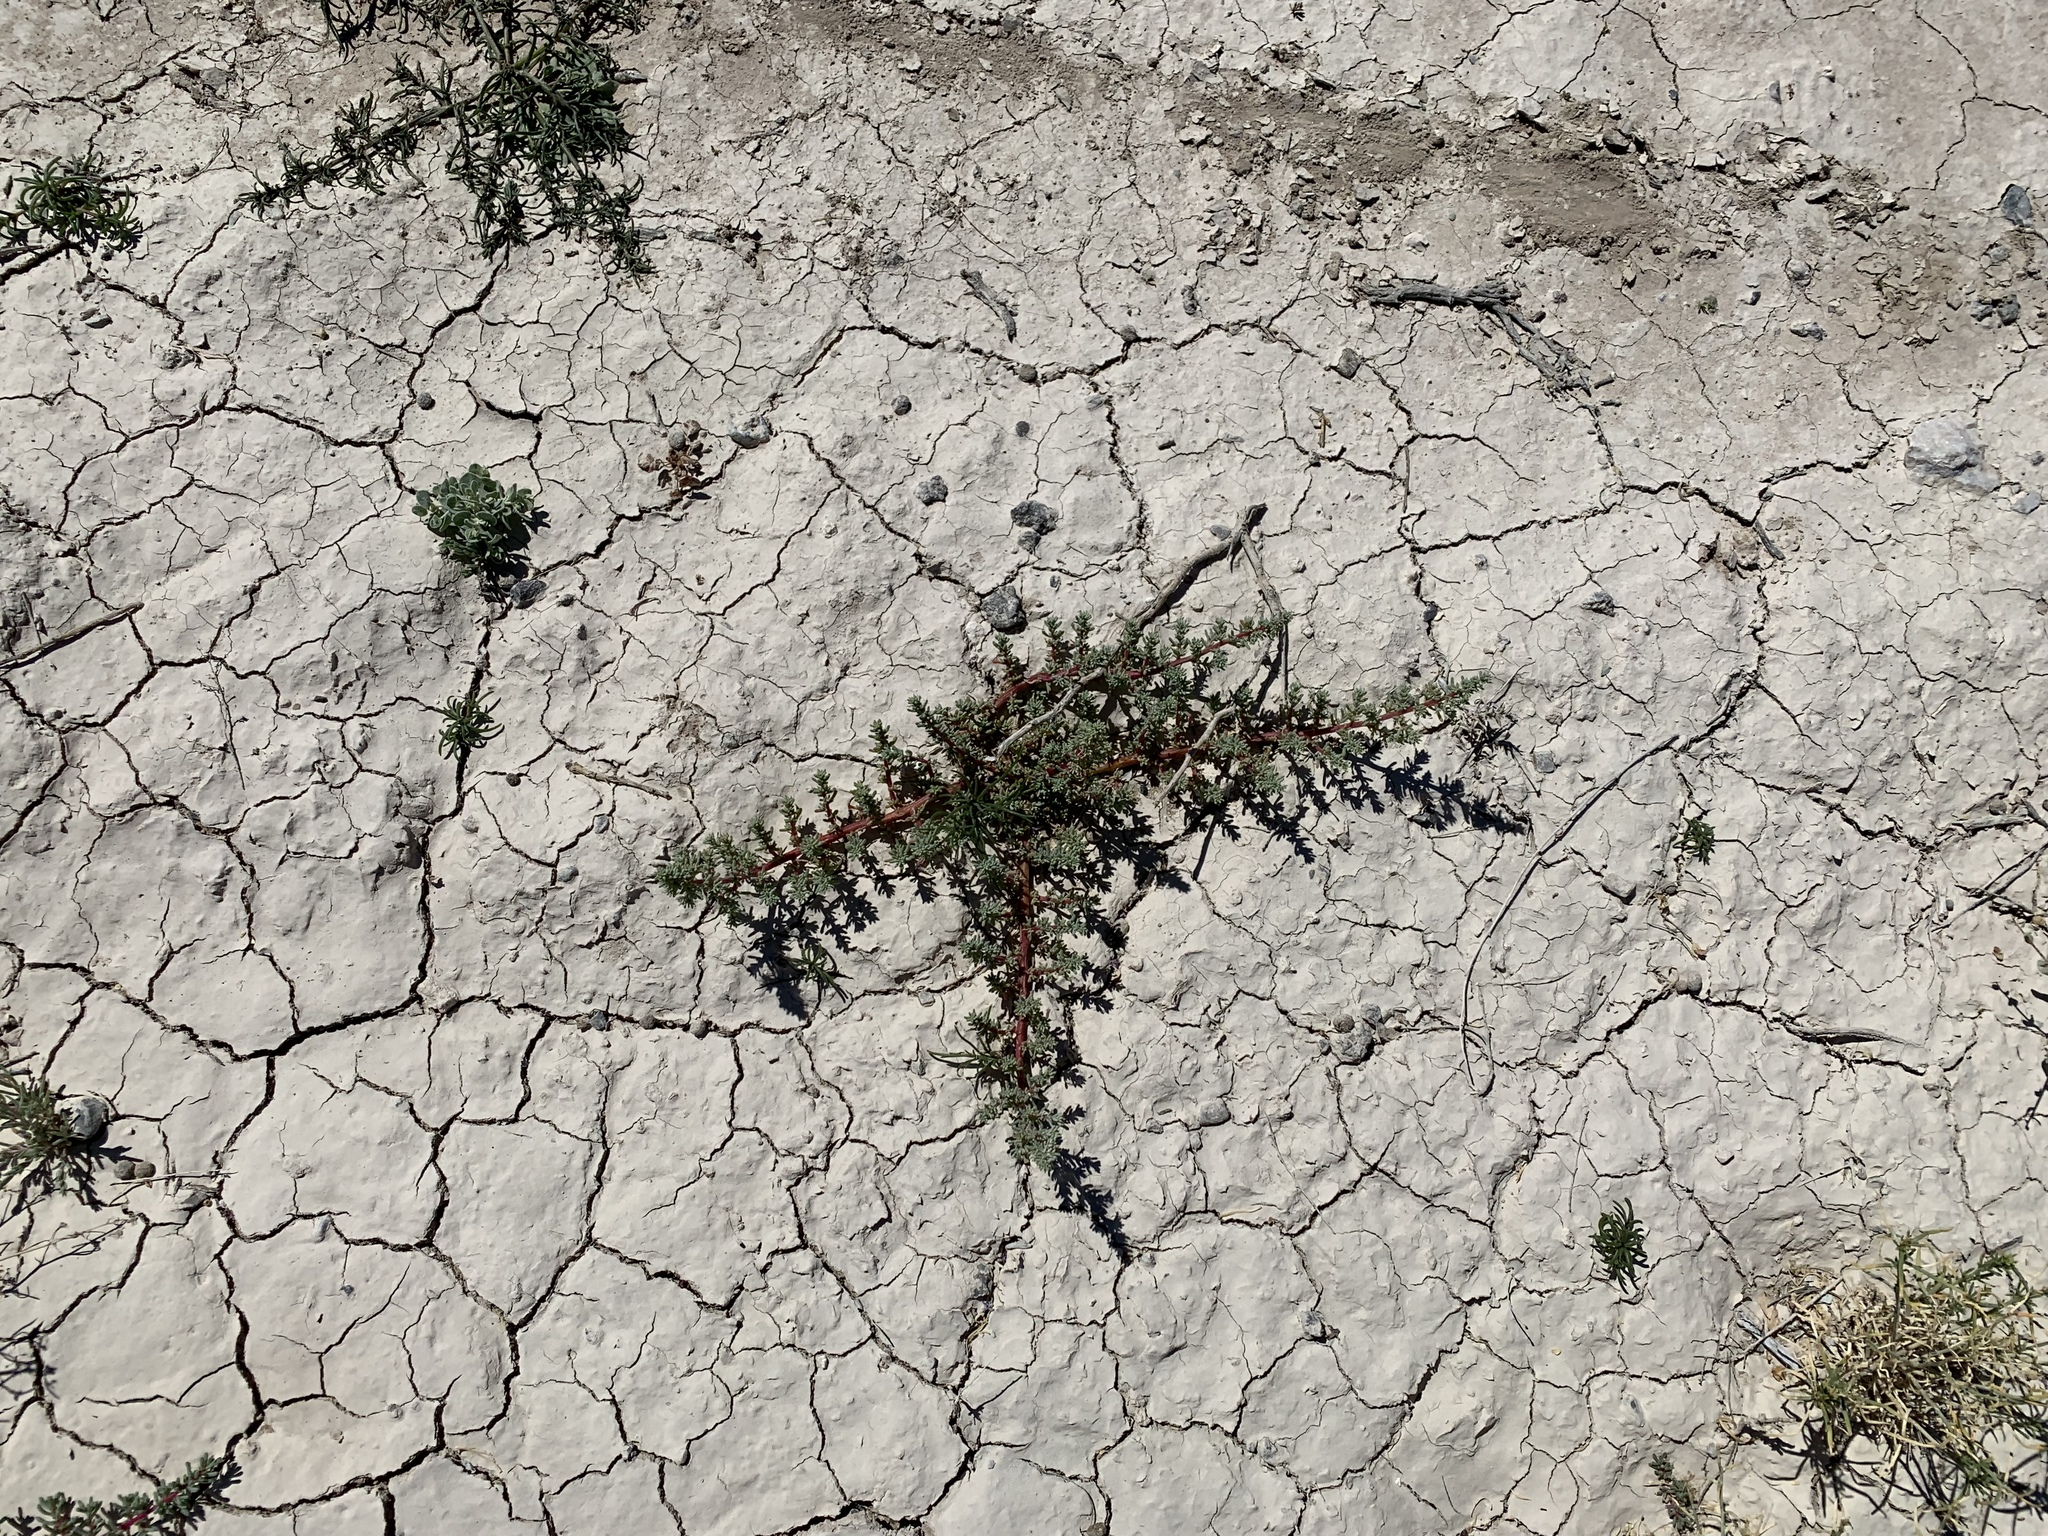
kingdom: Plantae
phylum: Tracheophyta
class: Magnoliopsida
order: Caryophyllales
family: Amaranthaceae
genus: Halogeton
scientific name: Halogeton glomeratus
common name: Saltlover
